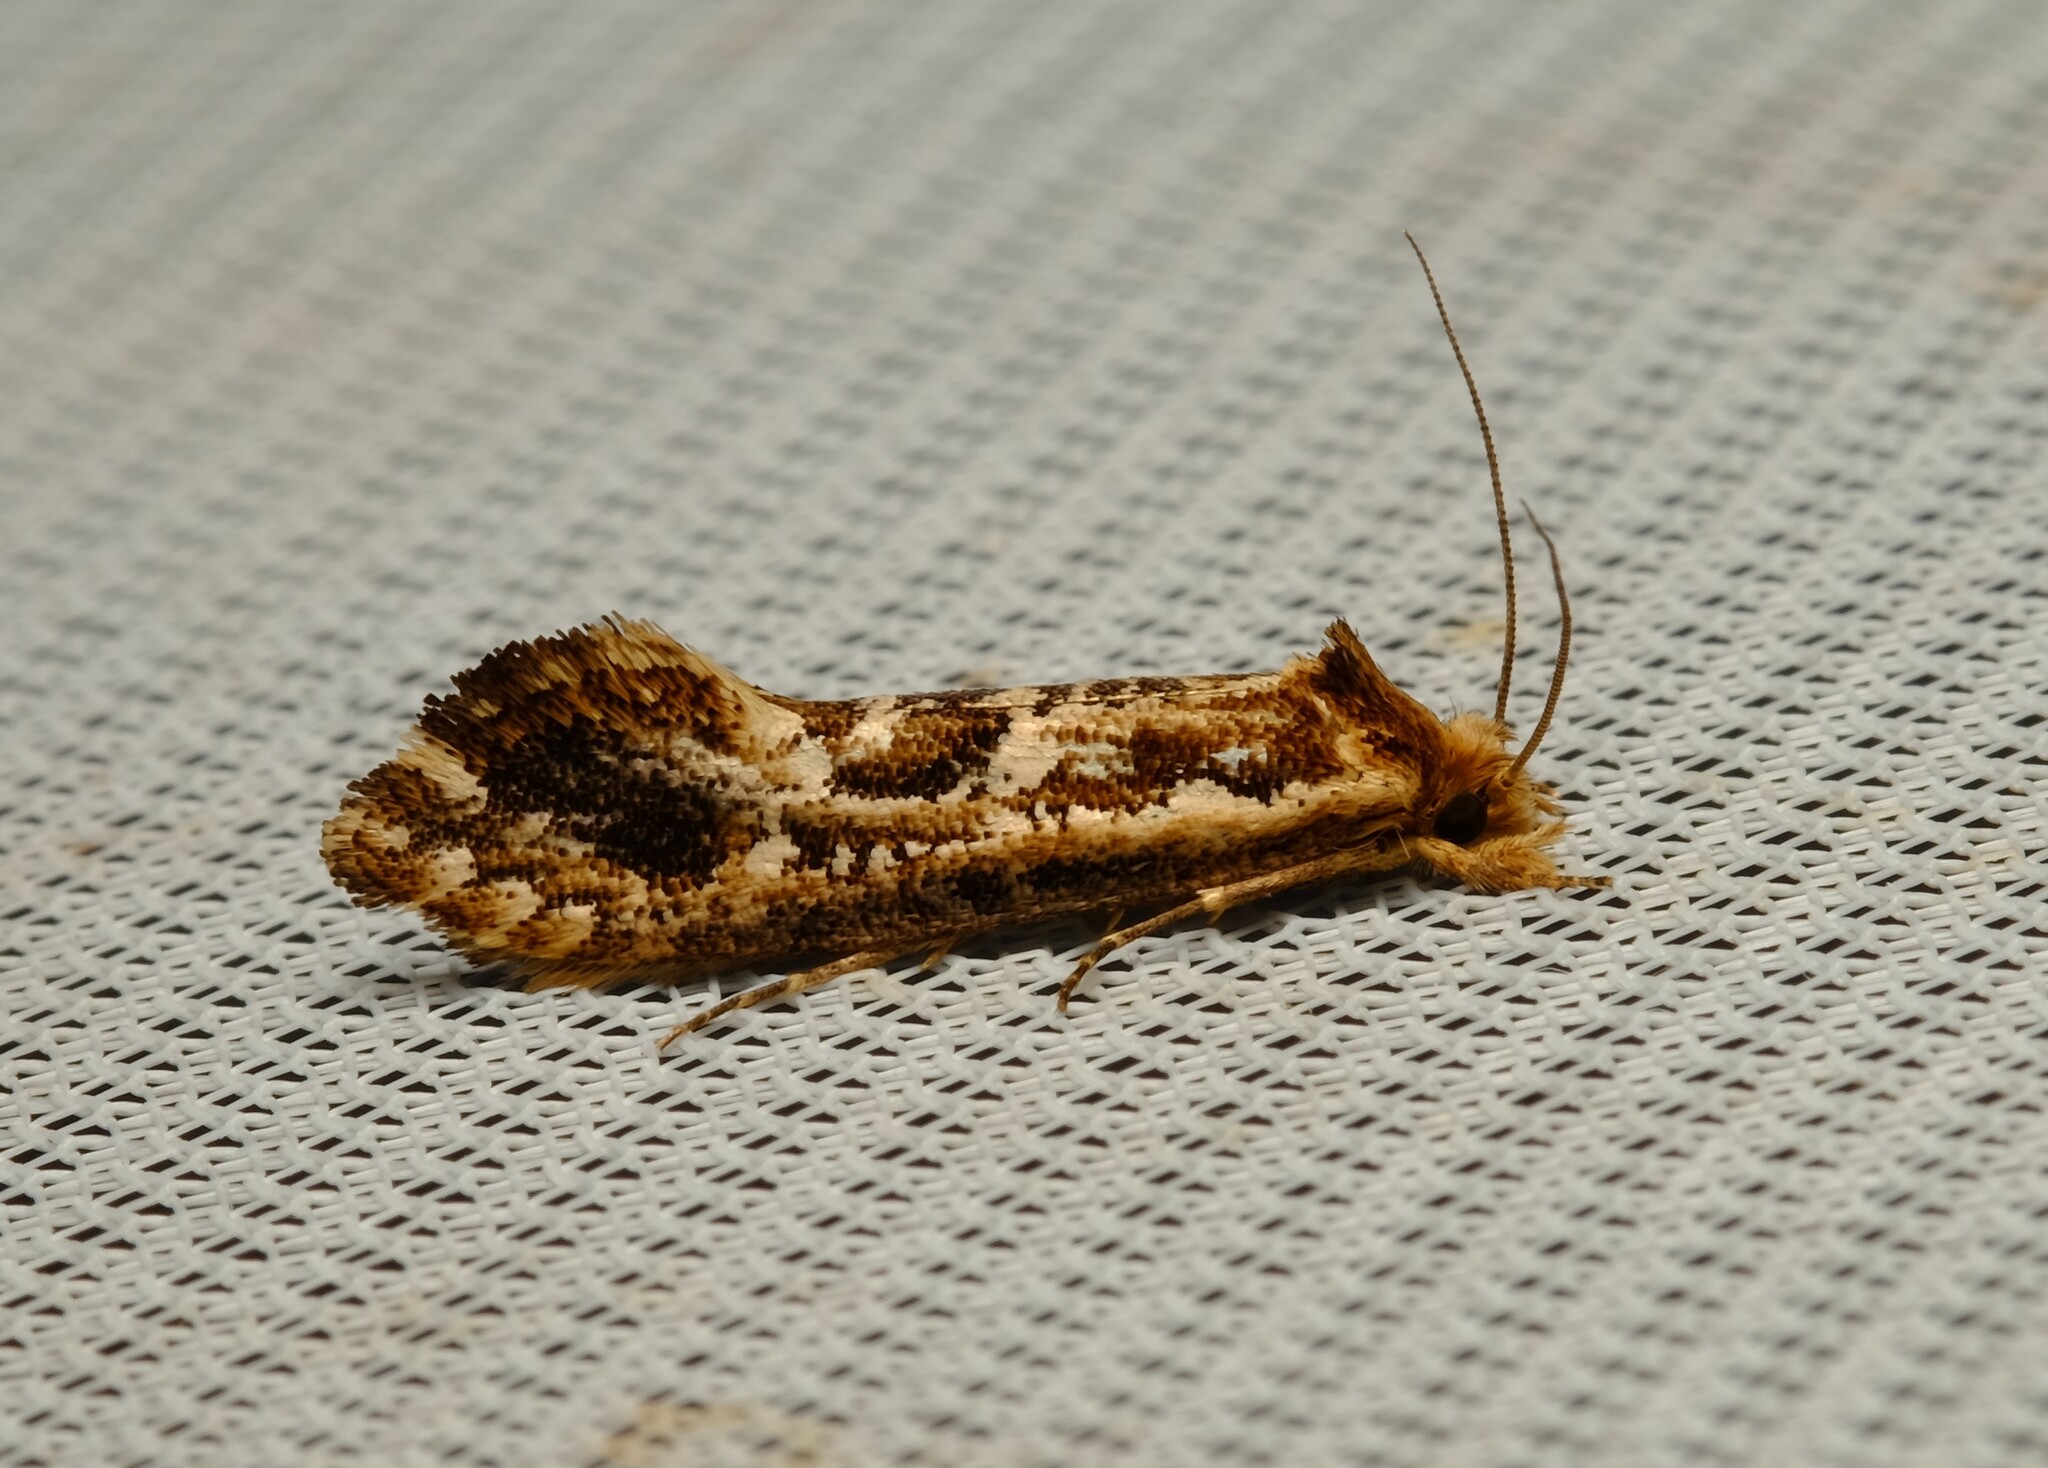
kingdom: Animalia
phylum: Arthropoda
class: Insecta
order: Lepidoptera
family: Tineidae
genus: Moerarchis
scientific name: Moerarchis inconcisella
